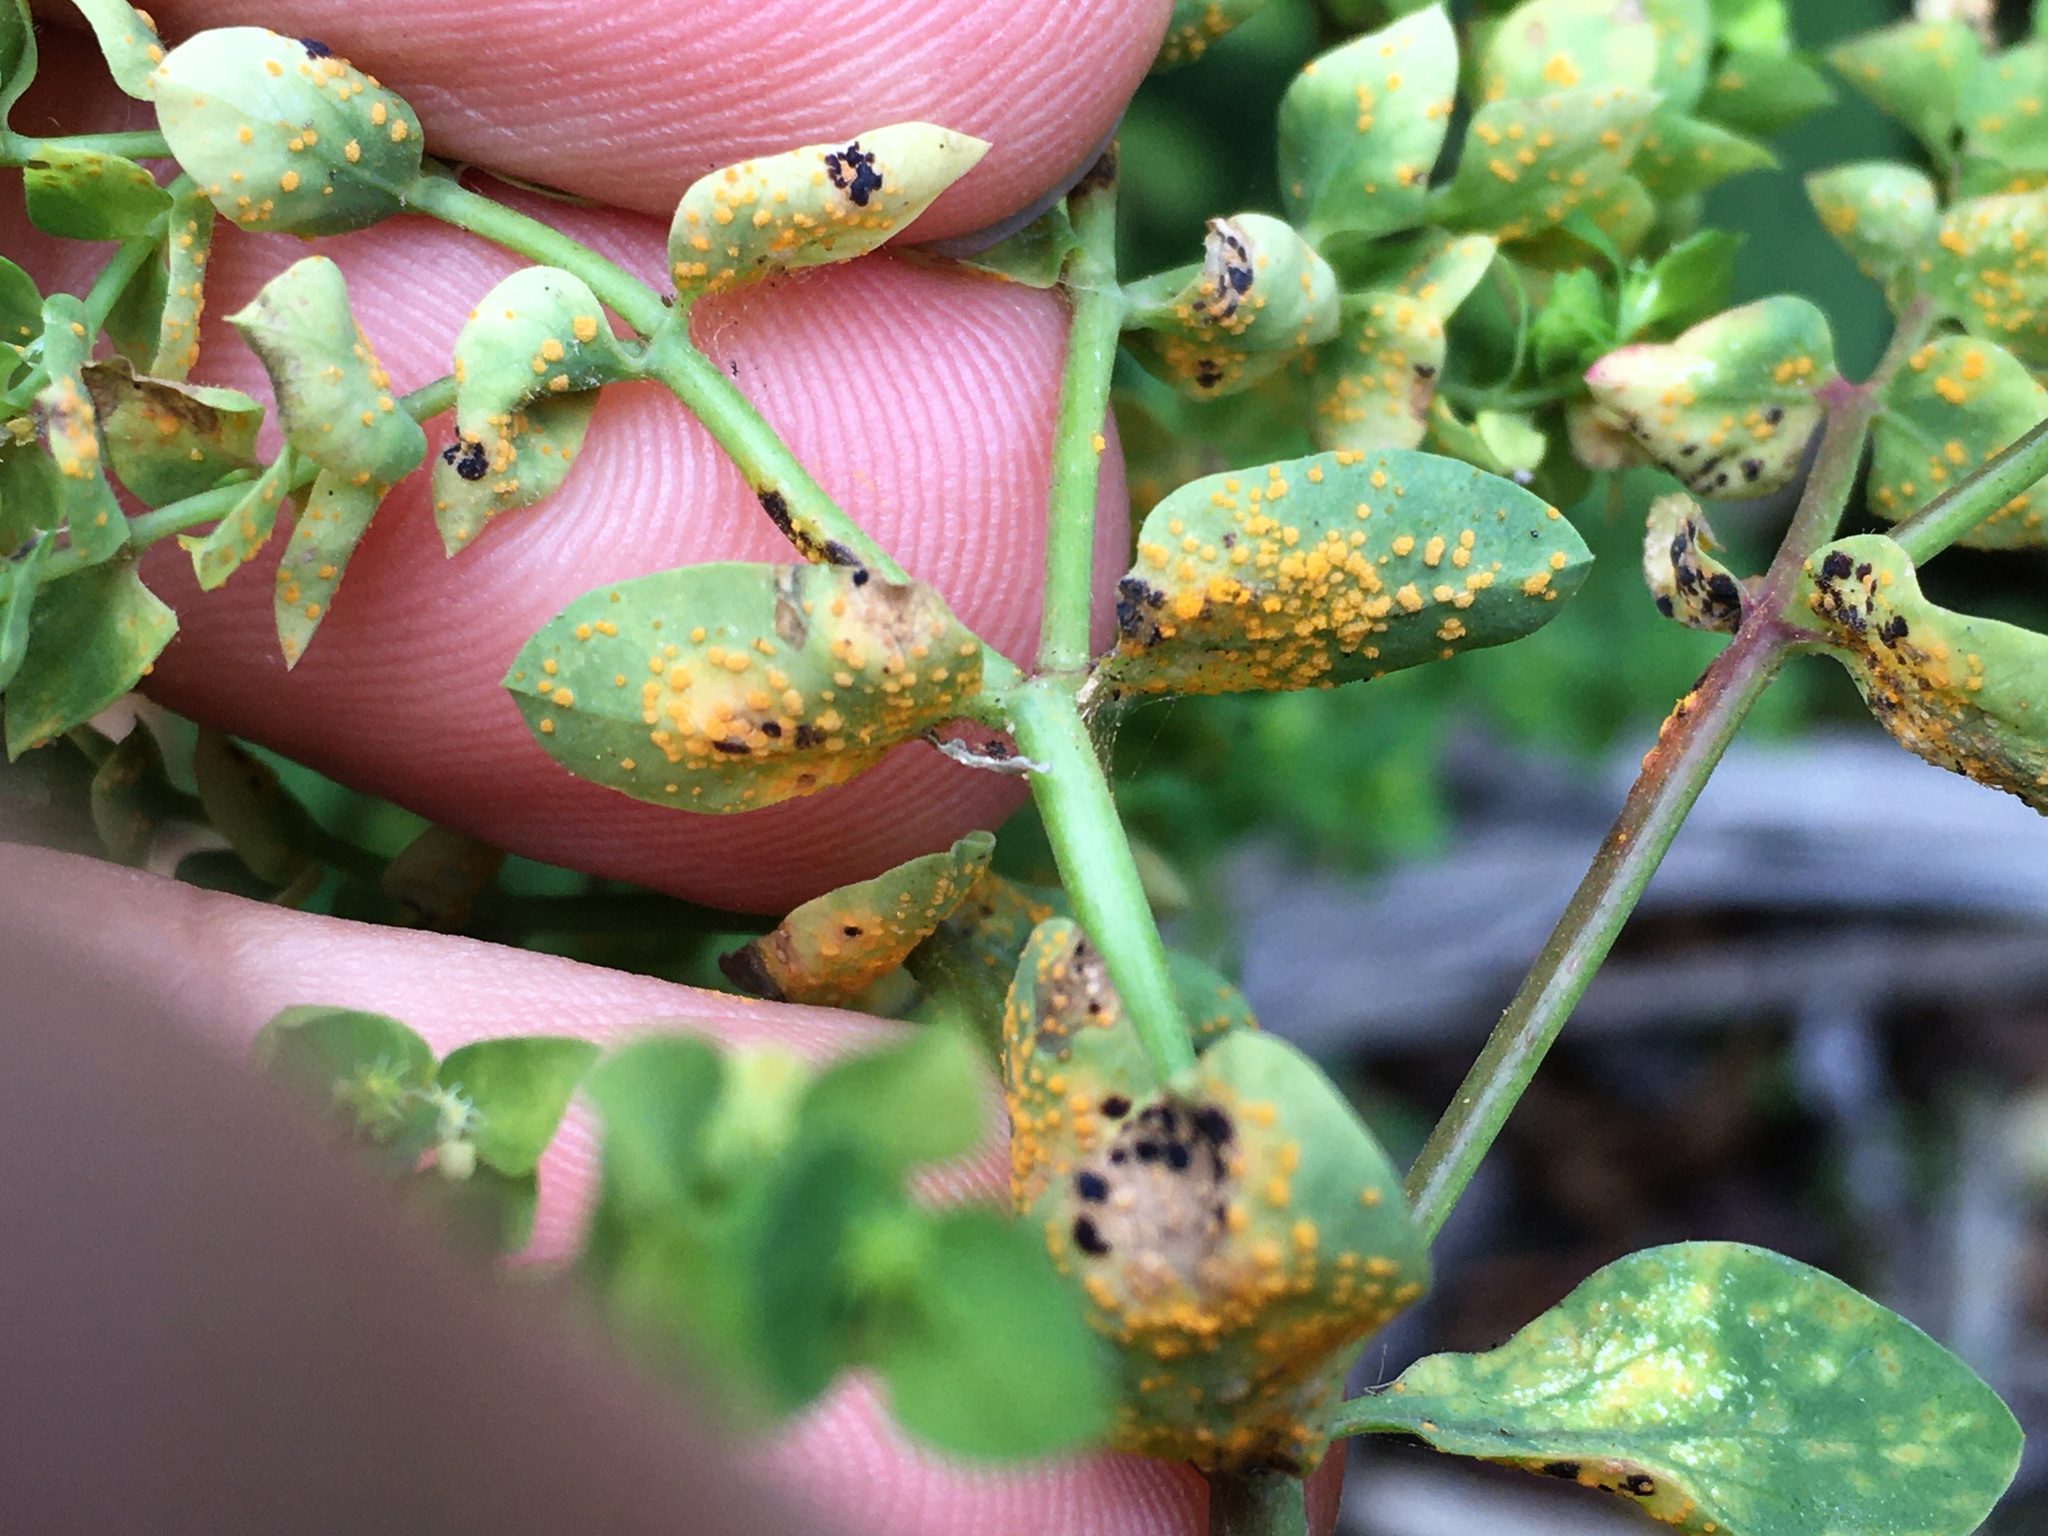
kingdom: Fungi
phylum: Basidiomycota
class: Pucciniomycetes
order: Pucciniales
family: Melampsoraceae
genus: Melampsora
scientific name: Melampsora euphorbiae
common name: Spurge rust
